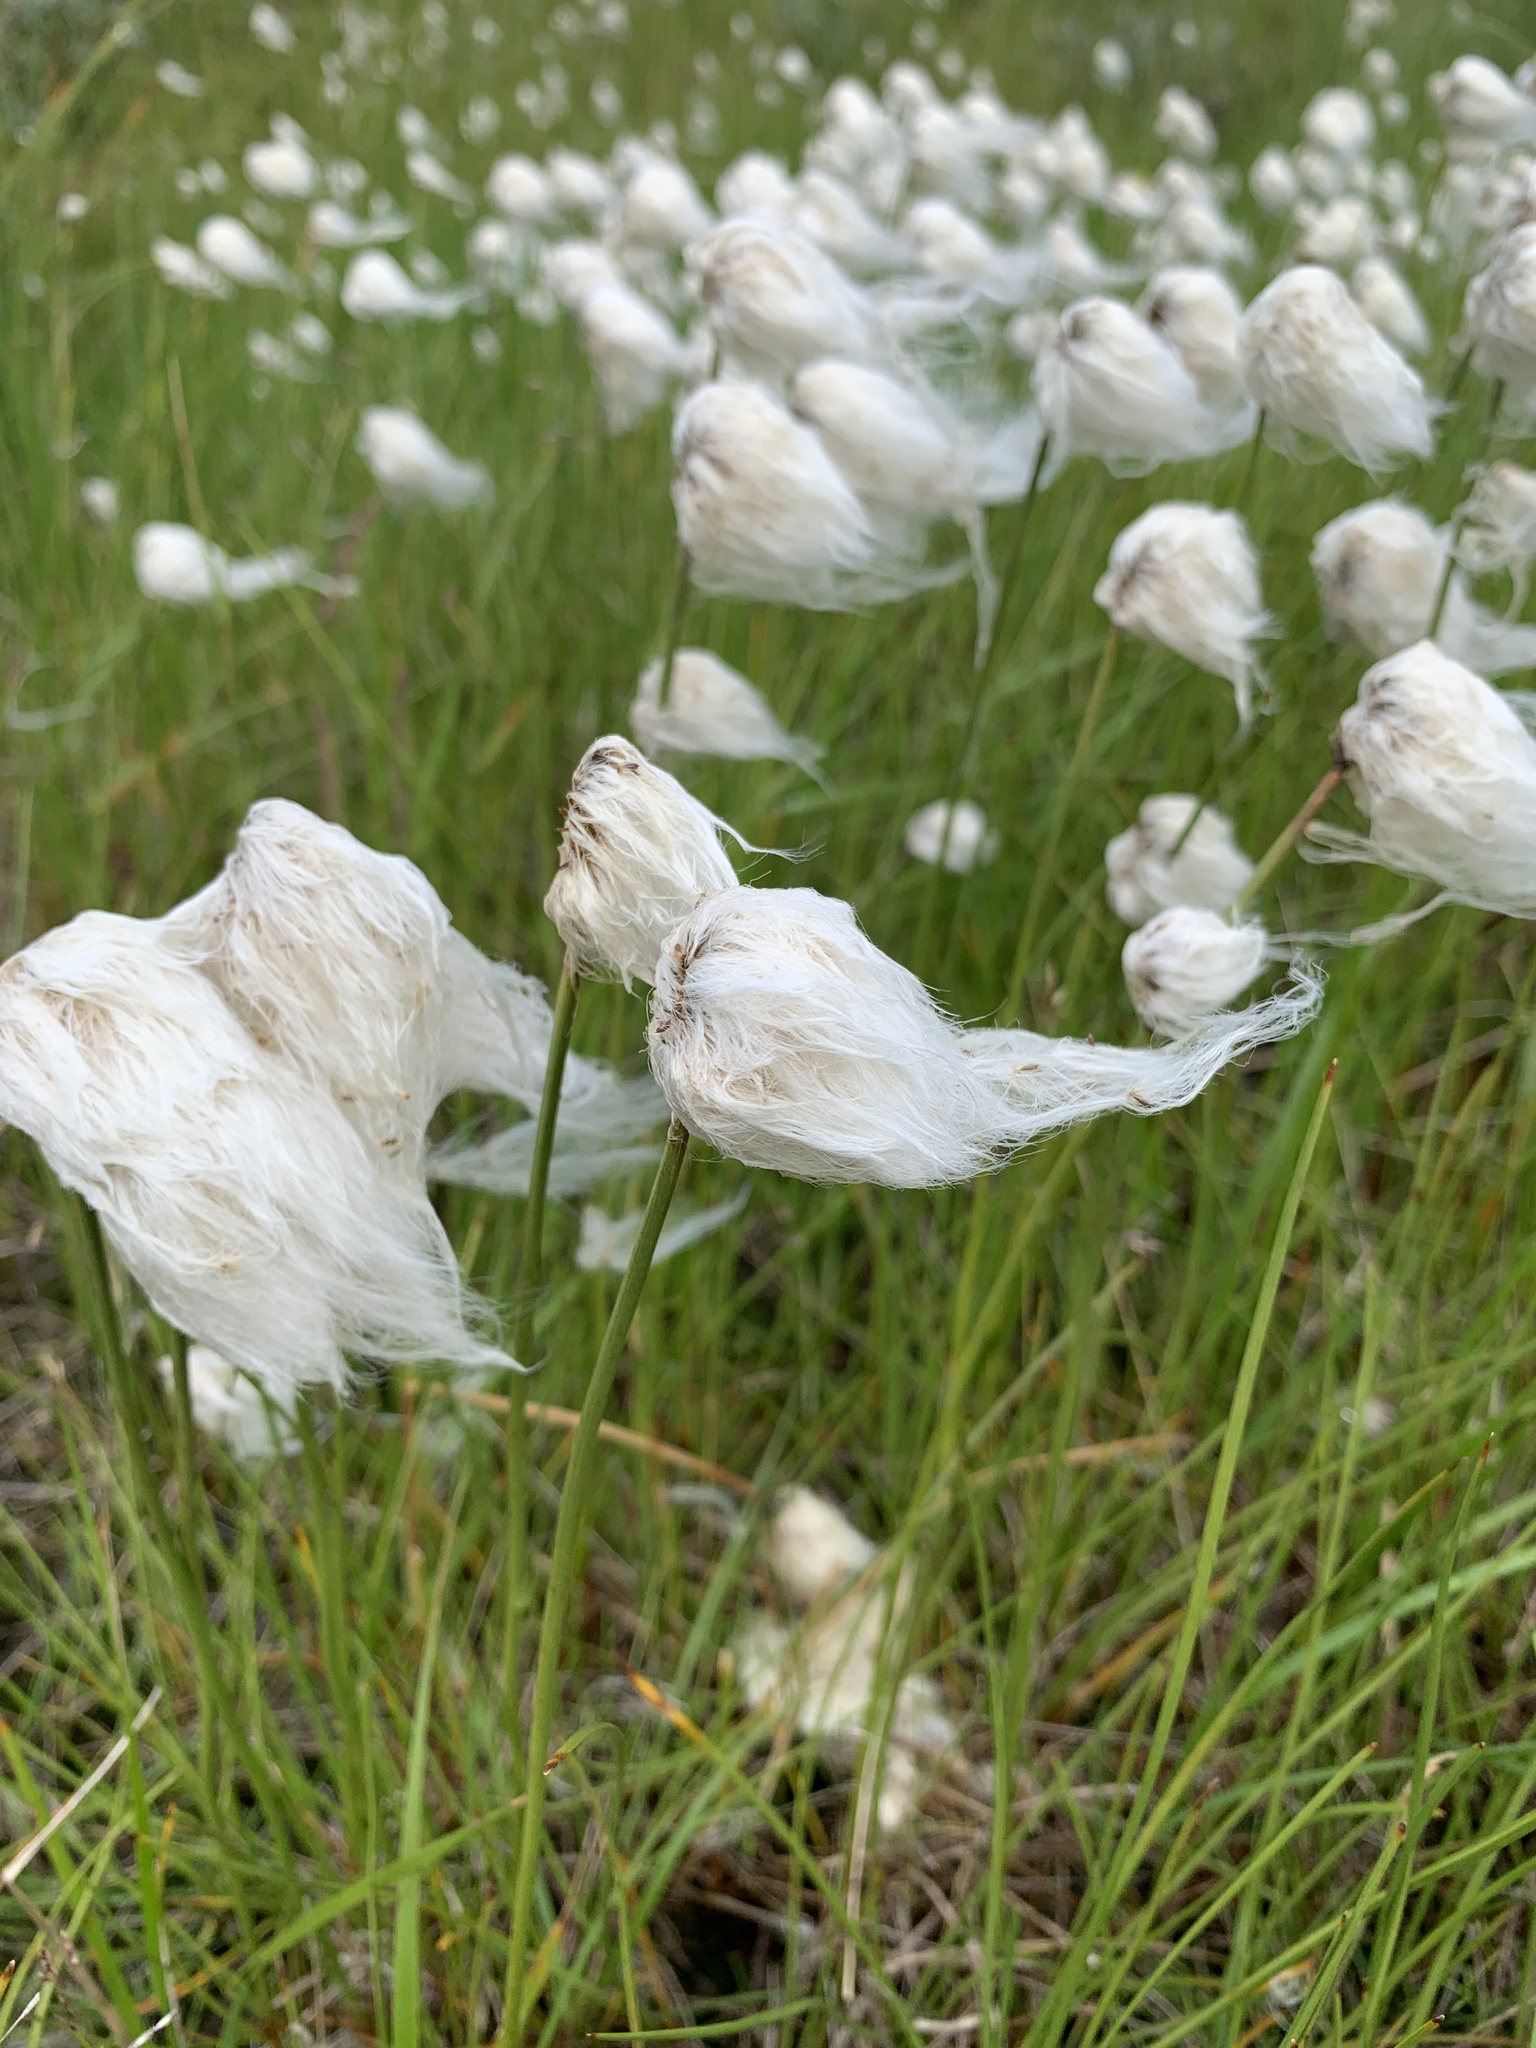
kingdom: Plantae
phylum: Tracheophyta
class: Liliopsida
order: Poales
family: Cyperaceae
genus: Eriophorum
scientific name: Eriophorum scheuchzeri
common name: Scheuchzer's cottongrass
